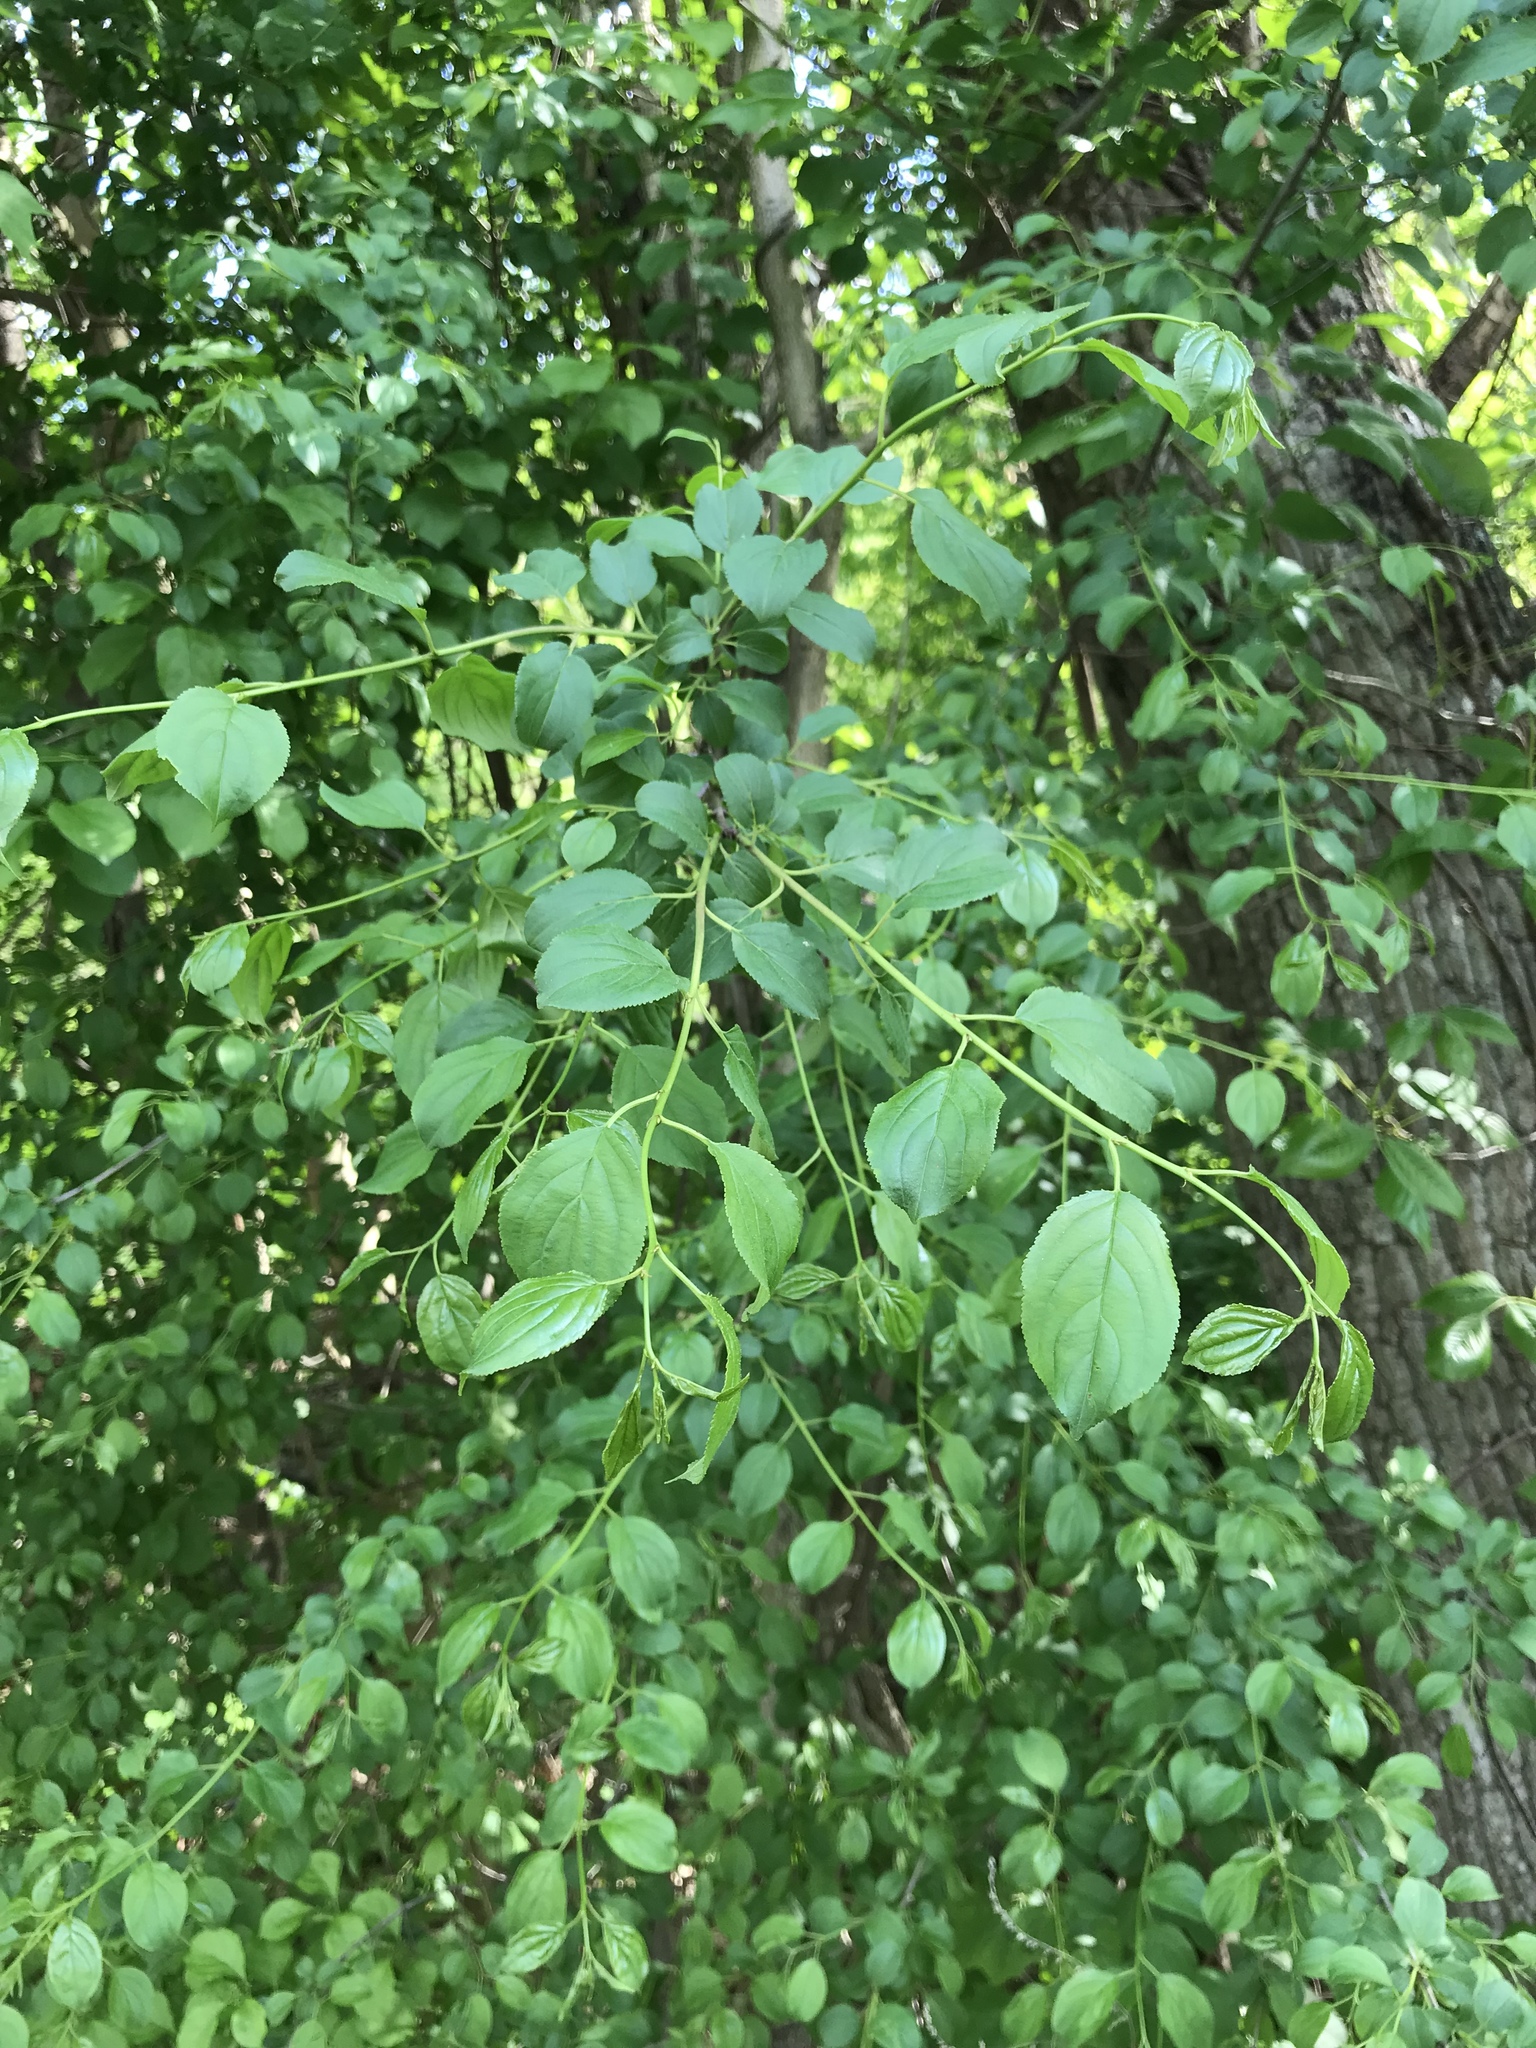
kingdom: Plantae
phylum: Tracheophyta
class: Magnoliopsida
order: Rosales
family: Rhamnaceae
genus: Rhamnus
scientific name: Rhamnus cathartica
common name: Common buckthorn
